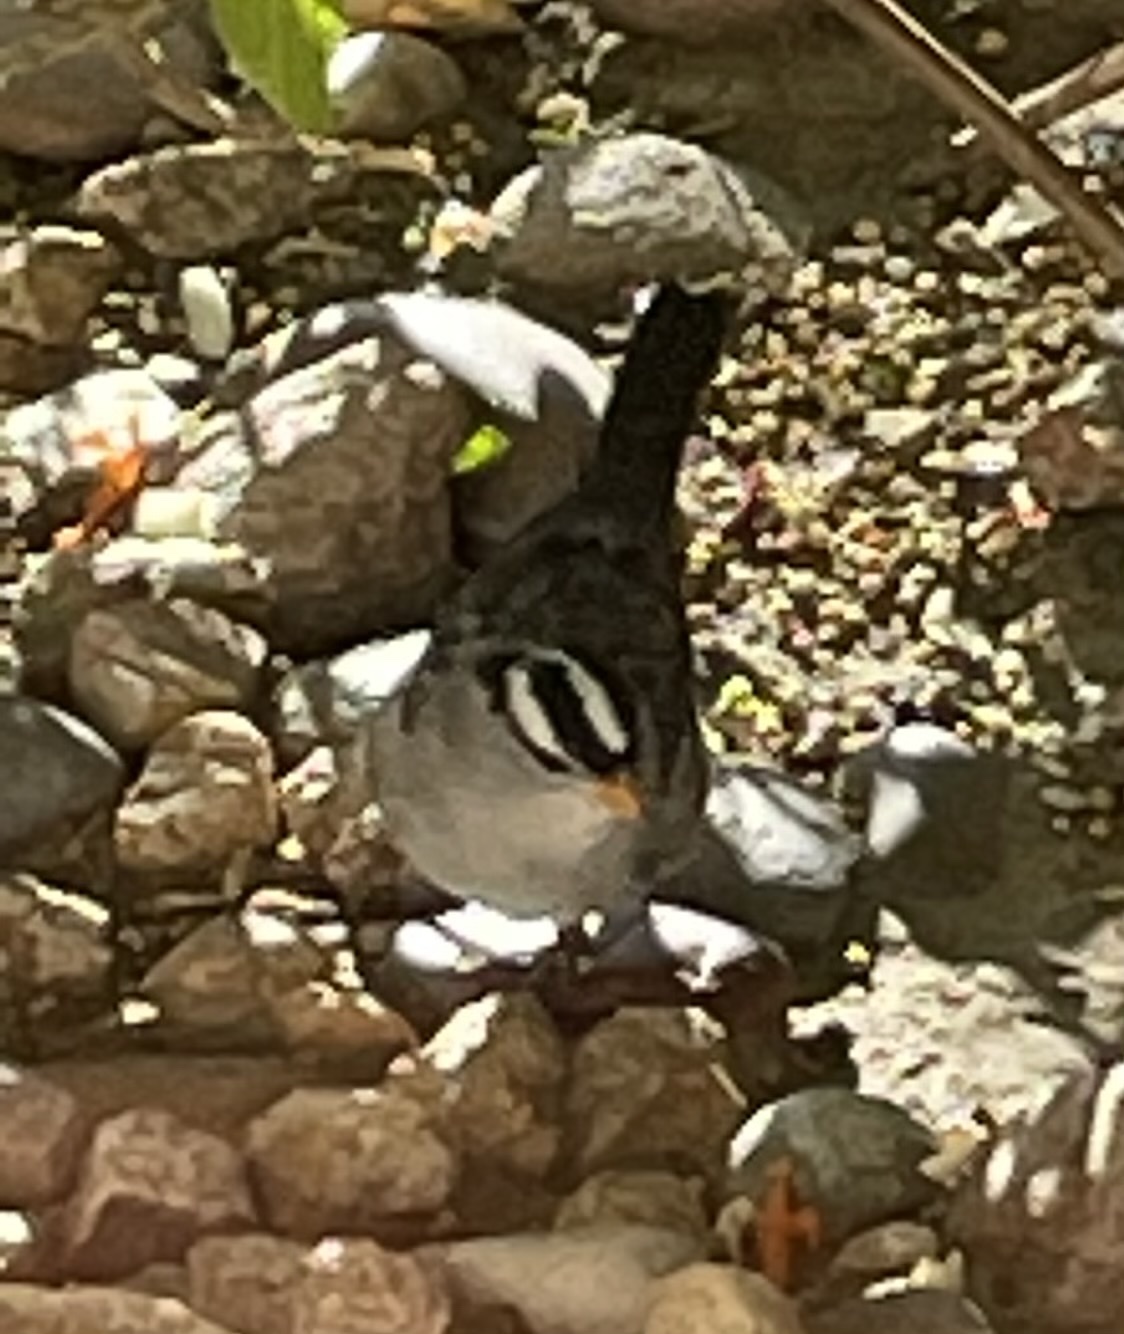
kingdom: Animalia
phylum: Chordata
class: Aves
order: Passeriformes
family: Passerellidae
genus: Zonotrichia
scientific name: Zonotrichia leucophrys
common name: White-crowned sparrow
